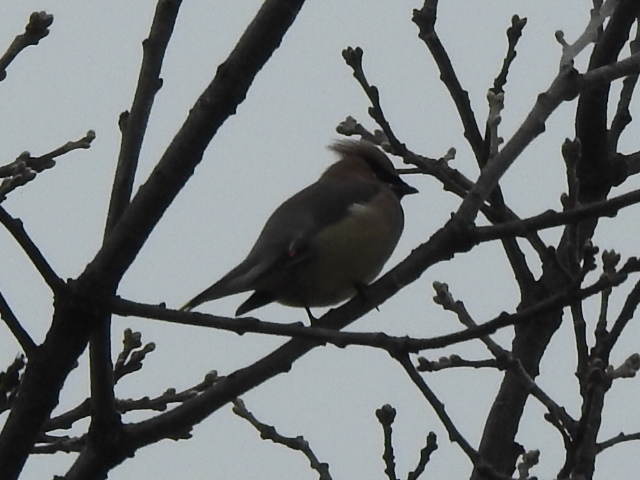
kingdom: Animalia
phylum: Chordata
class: Aves
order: Passeriformes
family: Bombycillidae
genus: Bombycilla
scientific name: Bombycilla cedrorum
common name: Cedar waxwing
